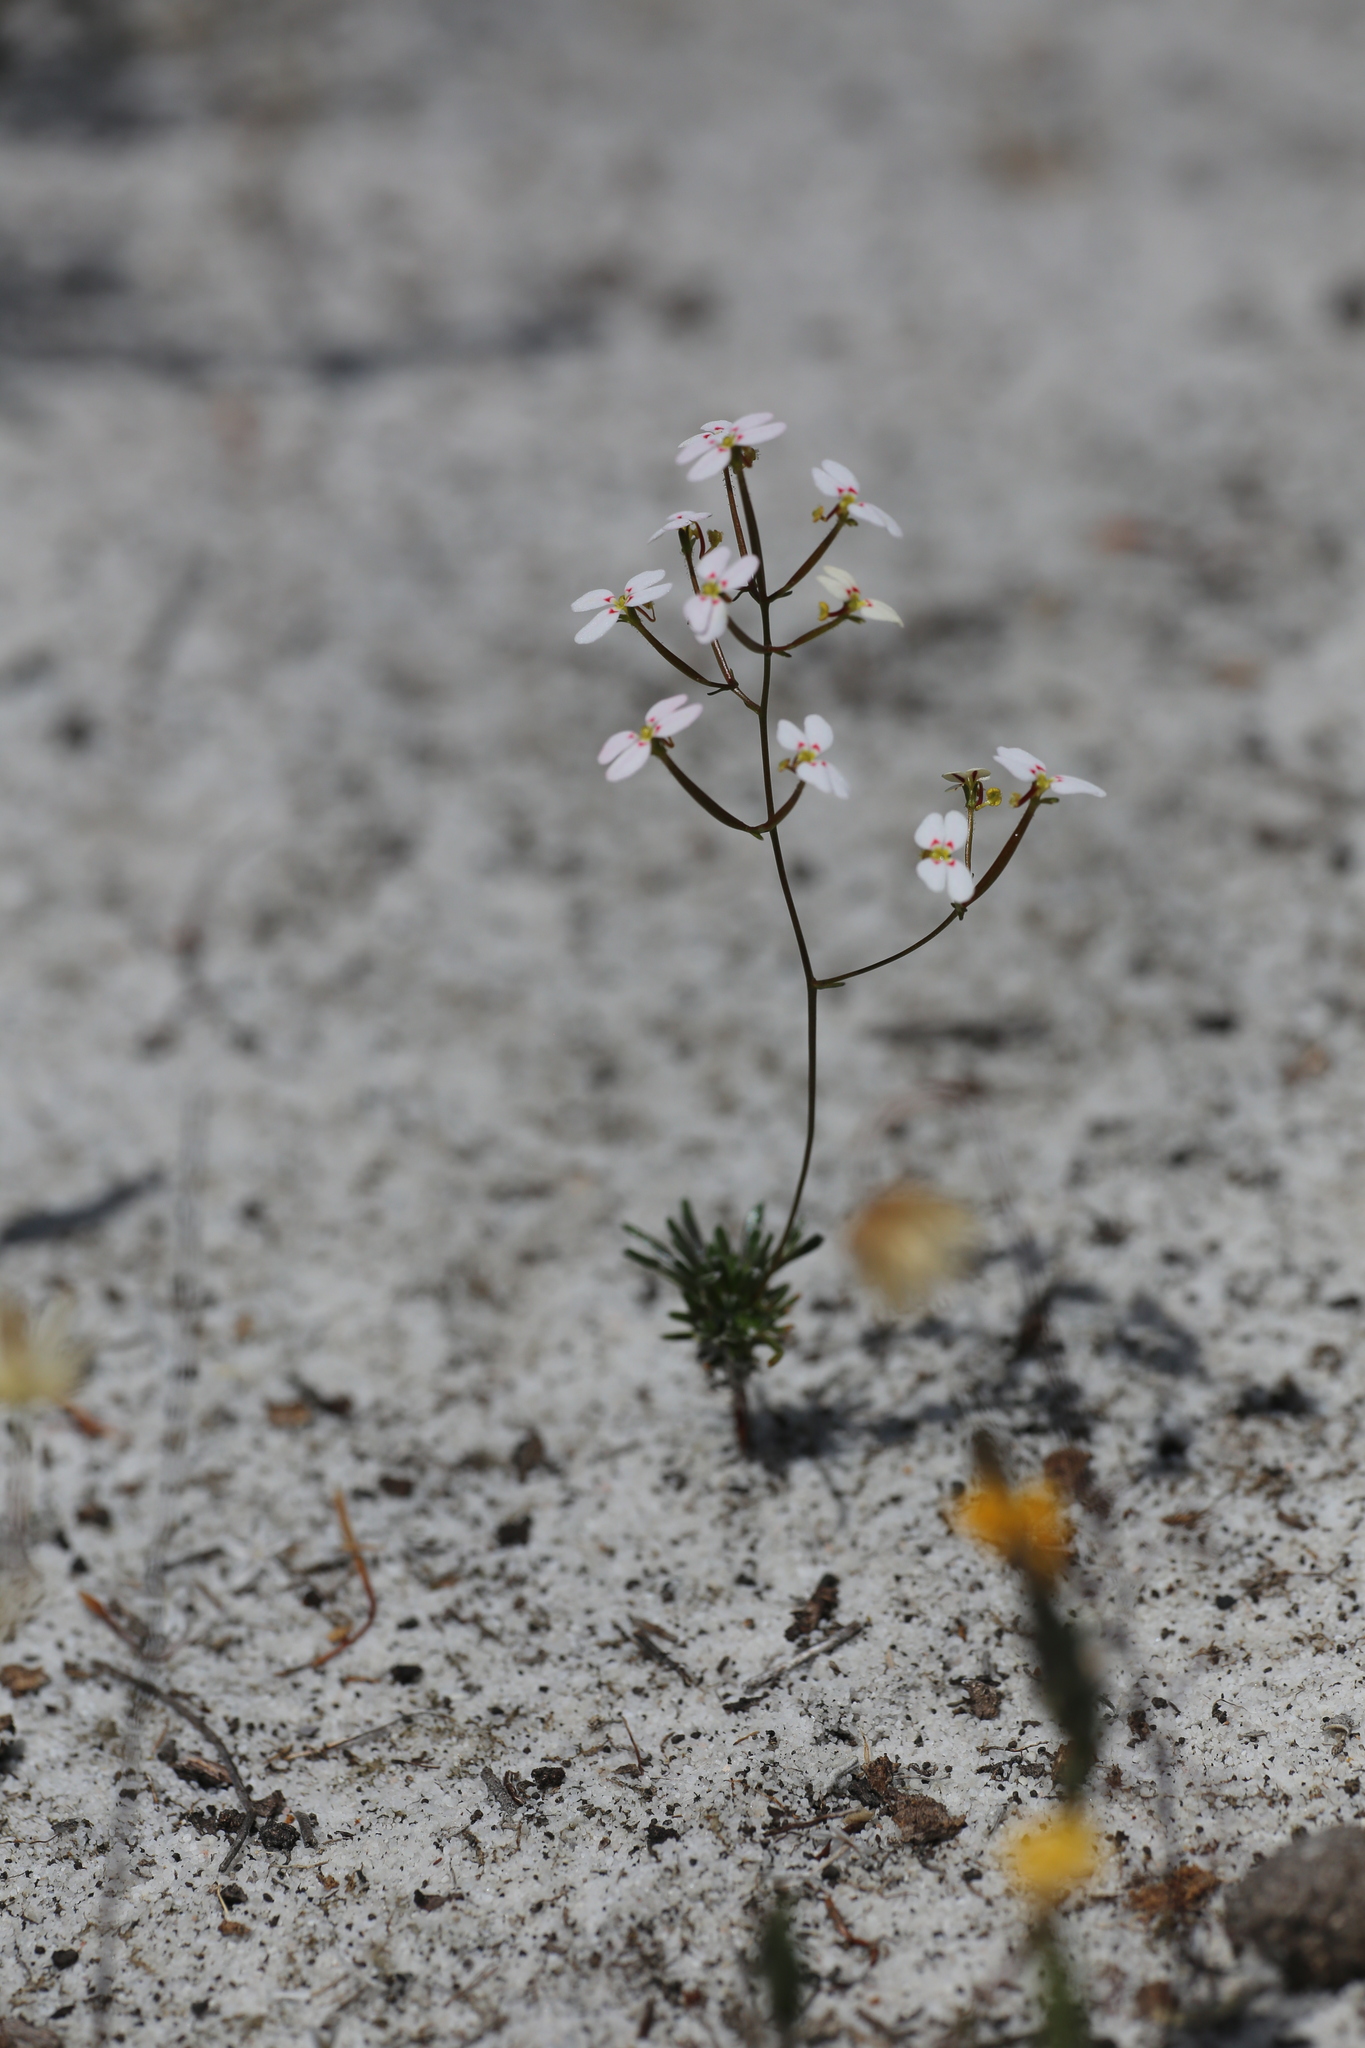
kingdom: Plantae
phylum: Tracheophyta
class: Magnoliopsida
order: Asterales
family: Stylidiaceae
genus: Stylidium
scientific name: Stylidium rigidulum
